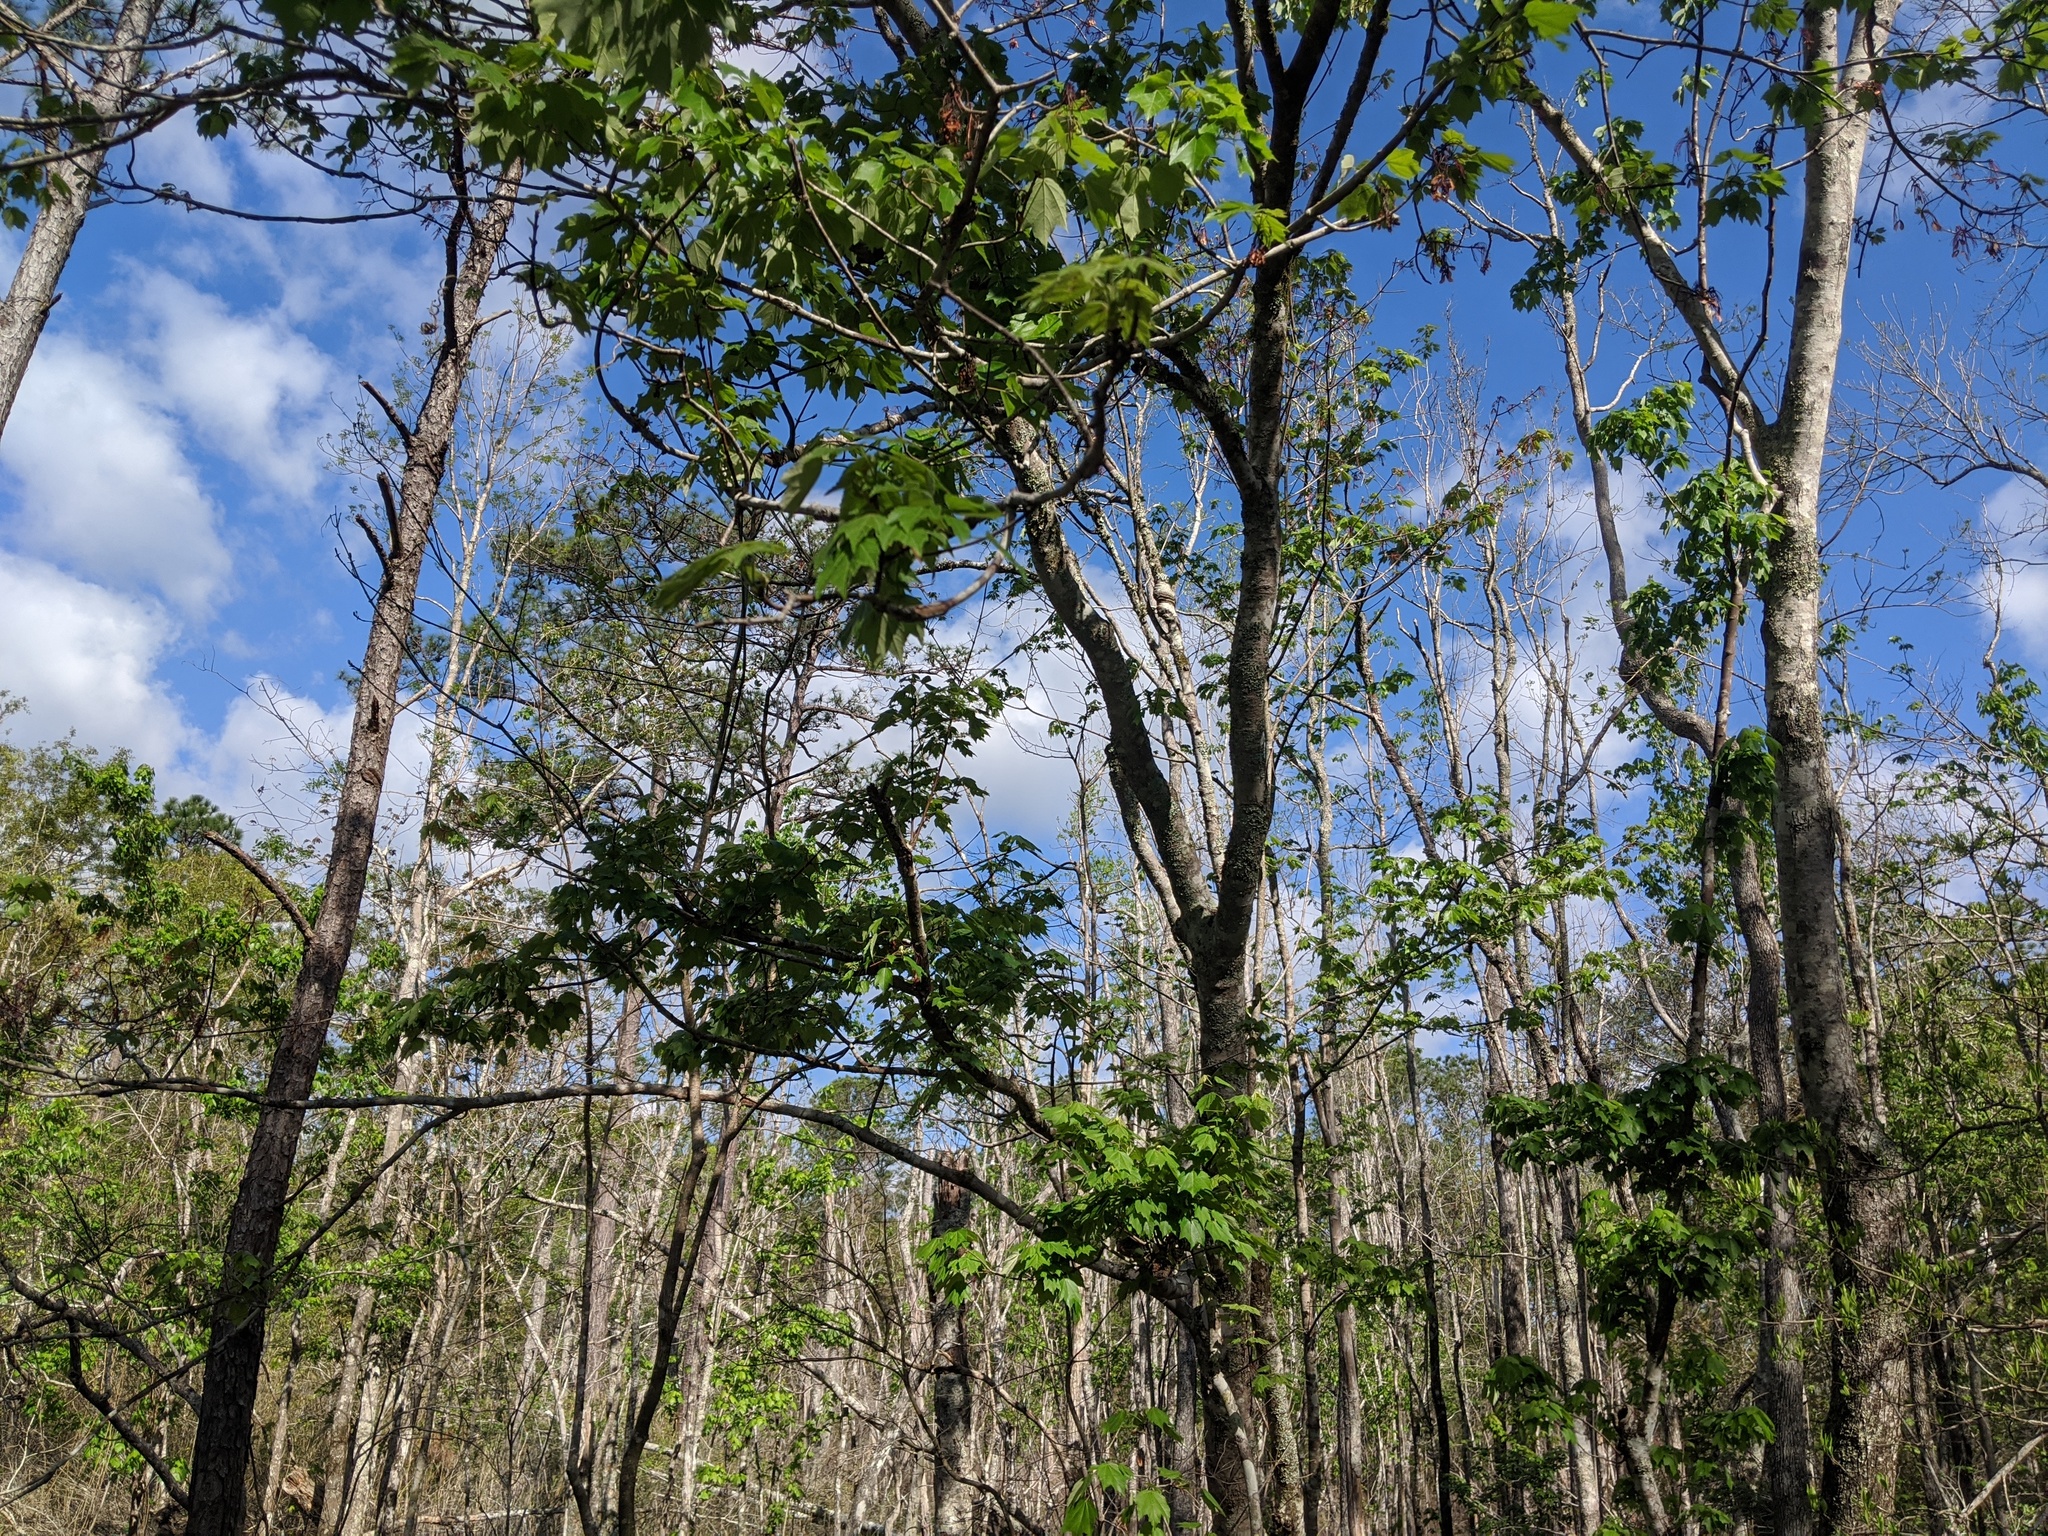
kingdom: Plantae
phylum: Tracheophyta
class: Magnoliopsida
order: Sapindales
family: Sapindaceae
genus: Acer
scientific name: Acer rubrum
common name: Red maple
